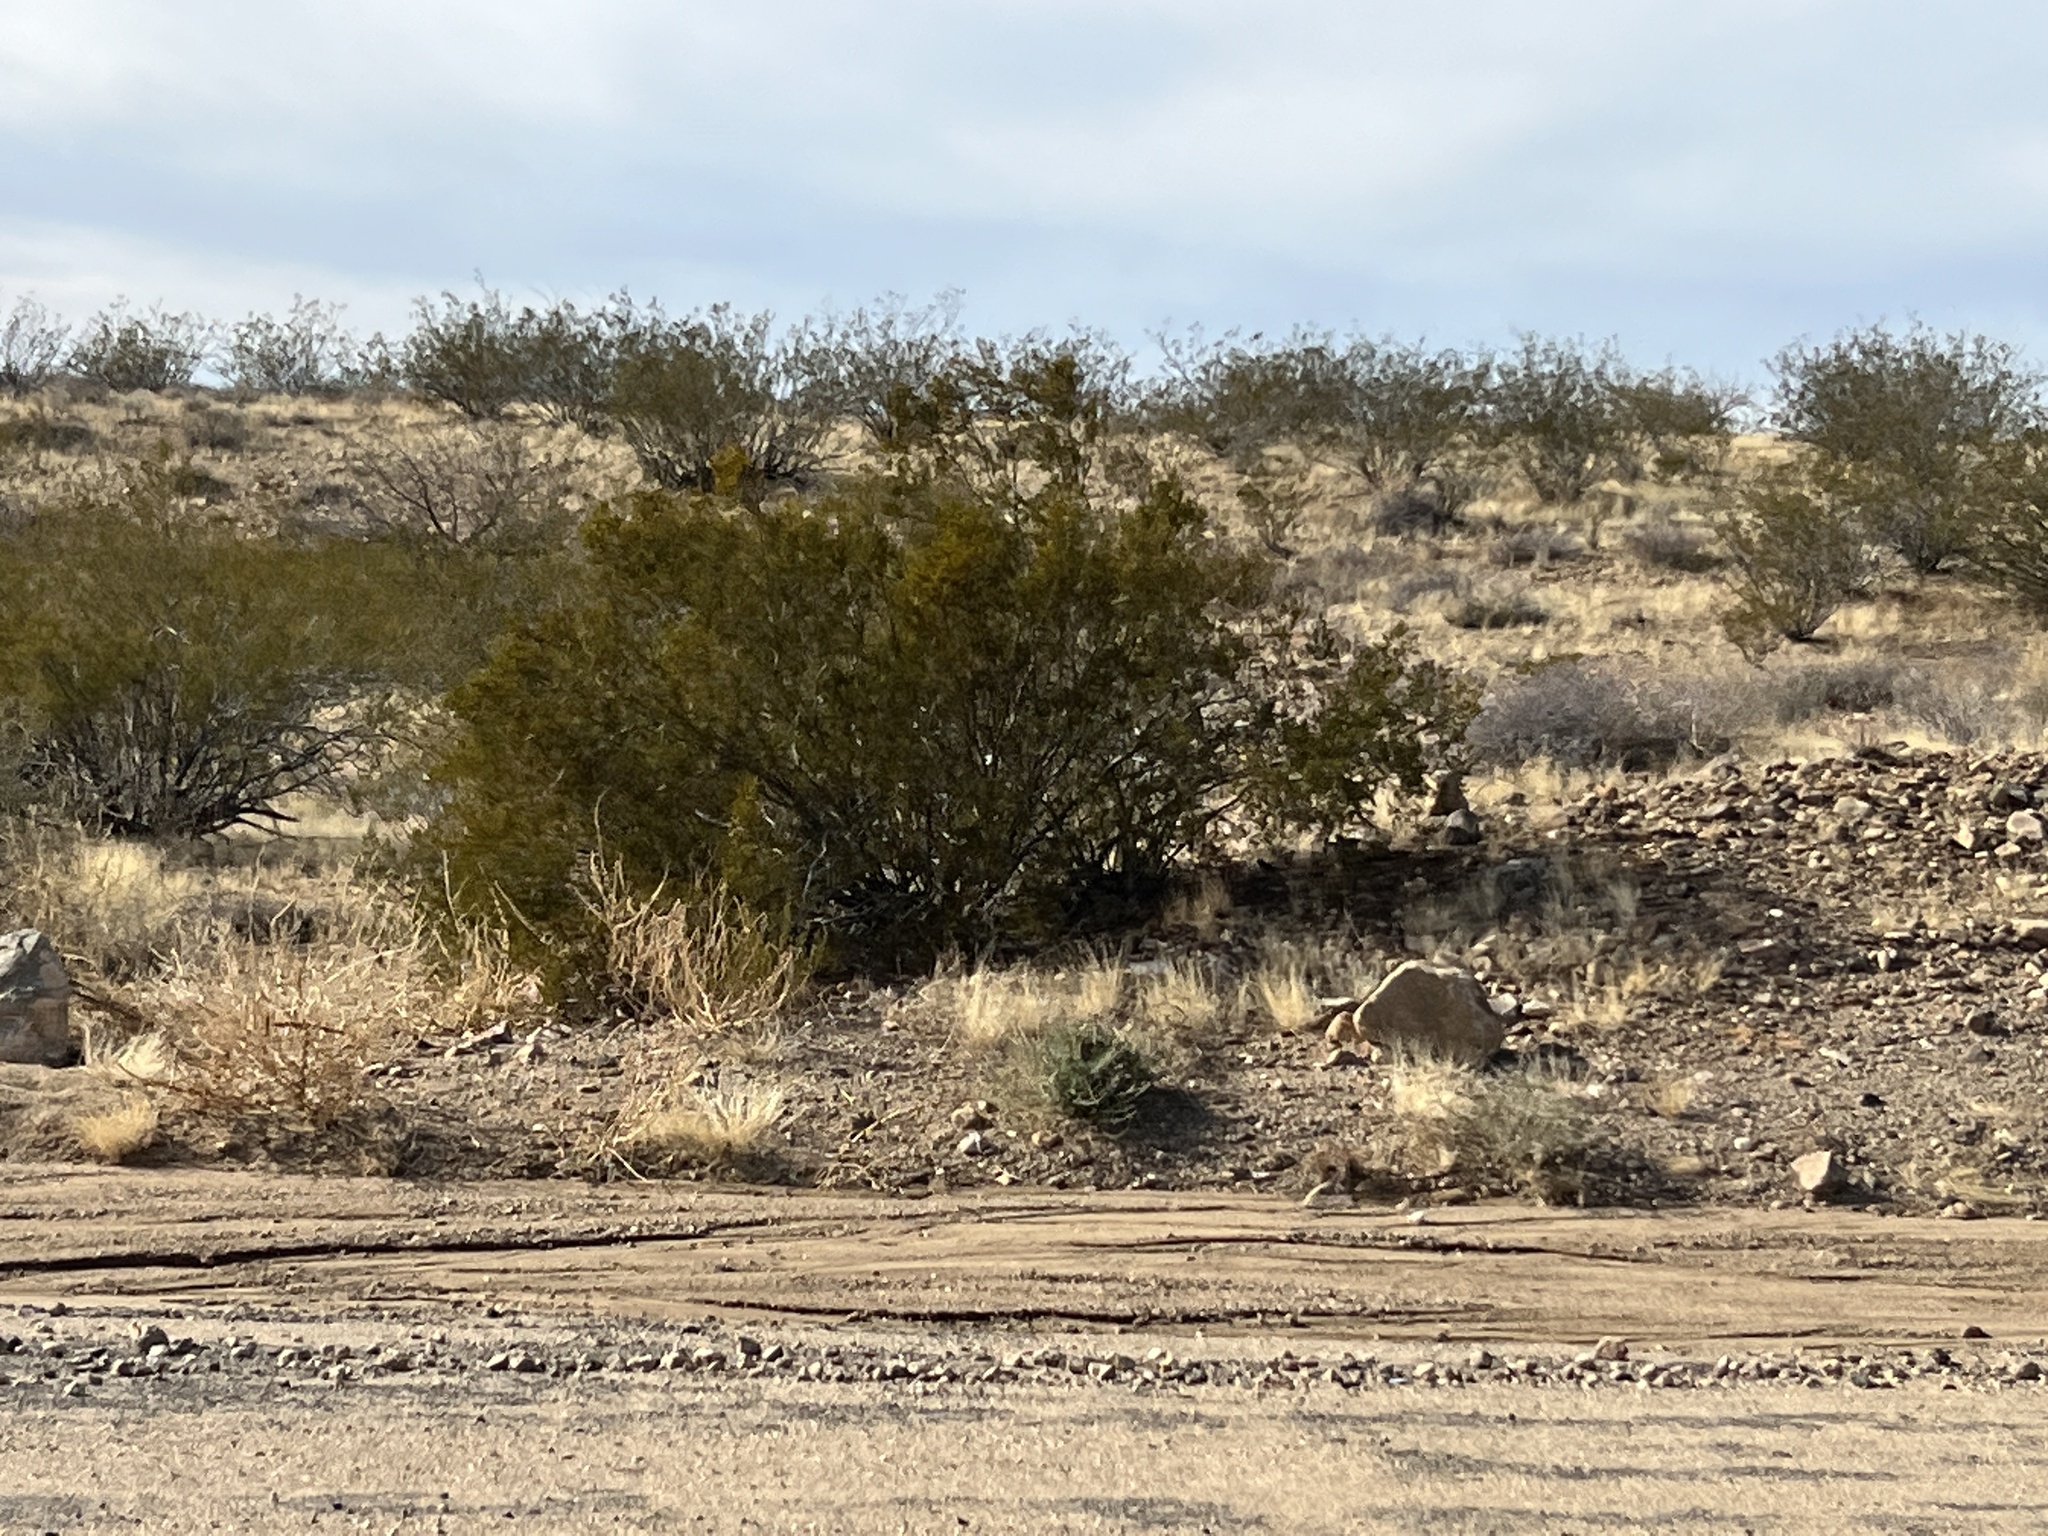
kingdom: Plantae
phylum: Tracheophyta
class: Magnoliopsida
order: Zygophyllales
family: Zygophyllaceae
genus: Larrea
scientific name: Larrea tridentata
